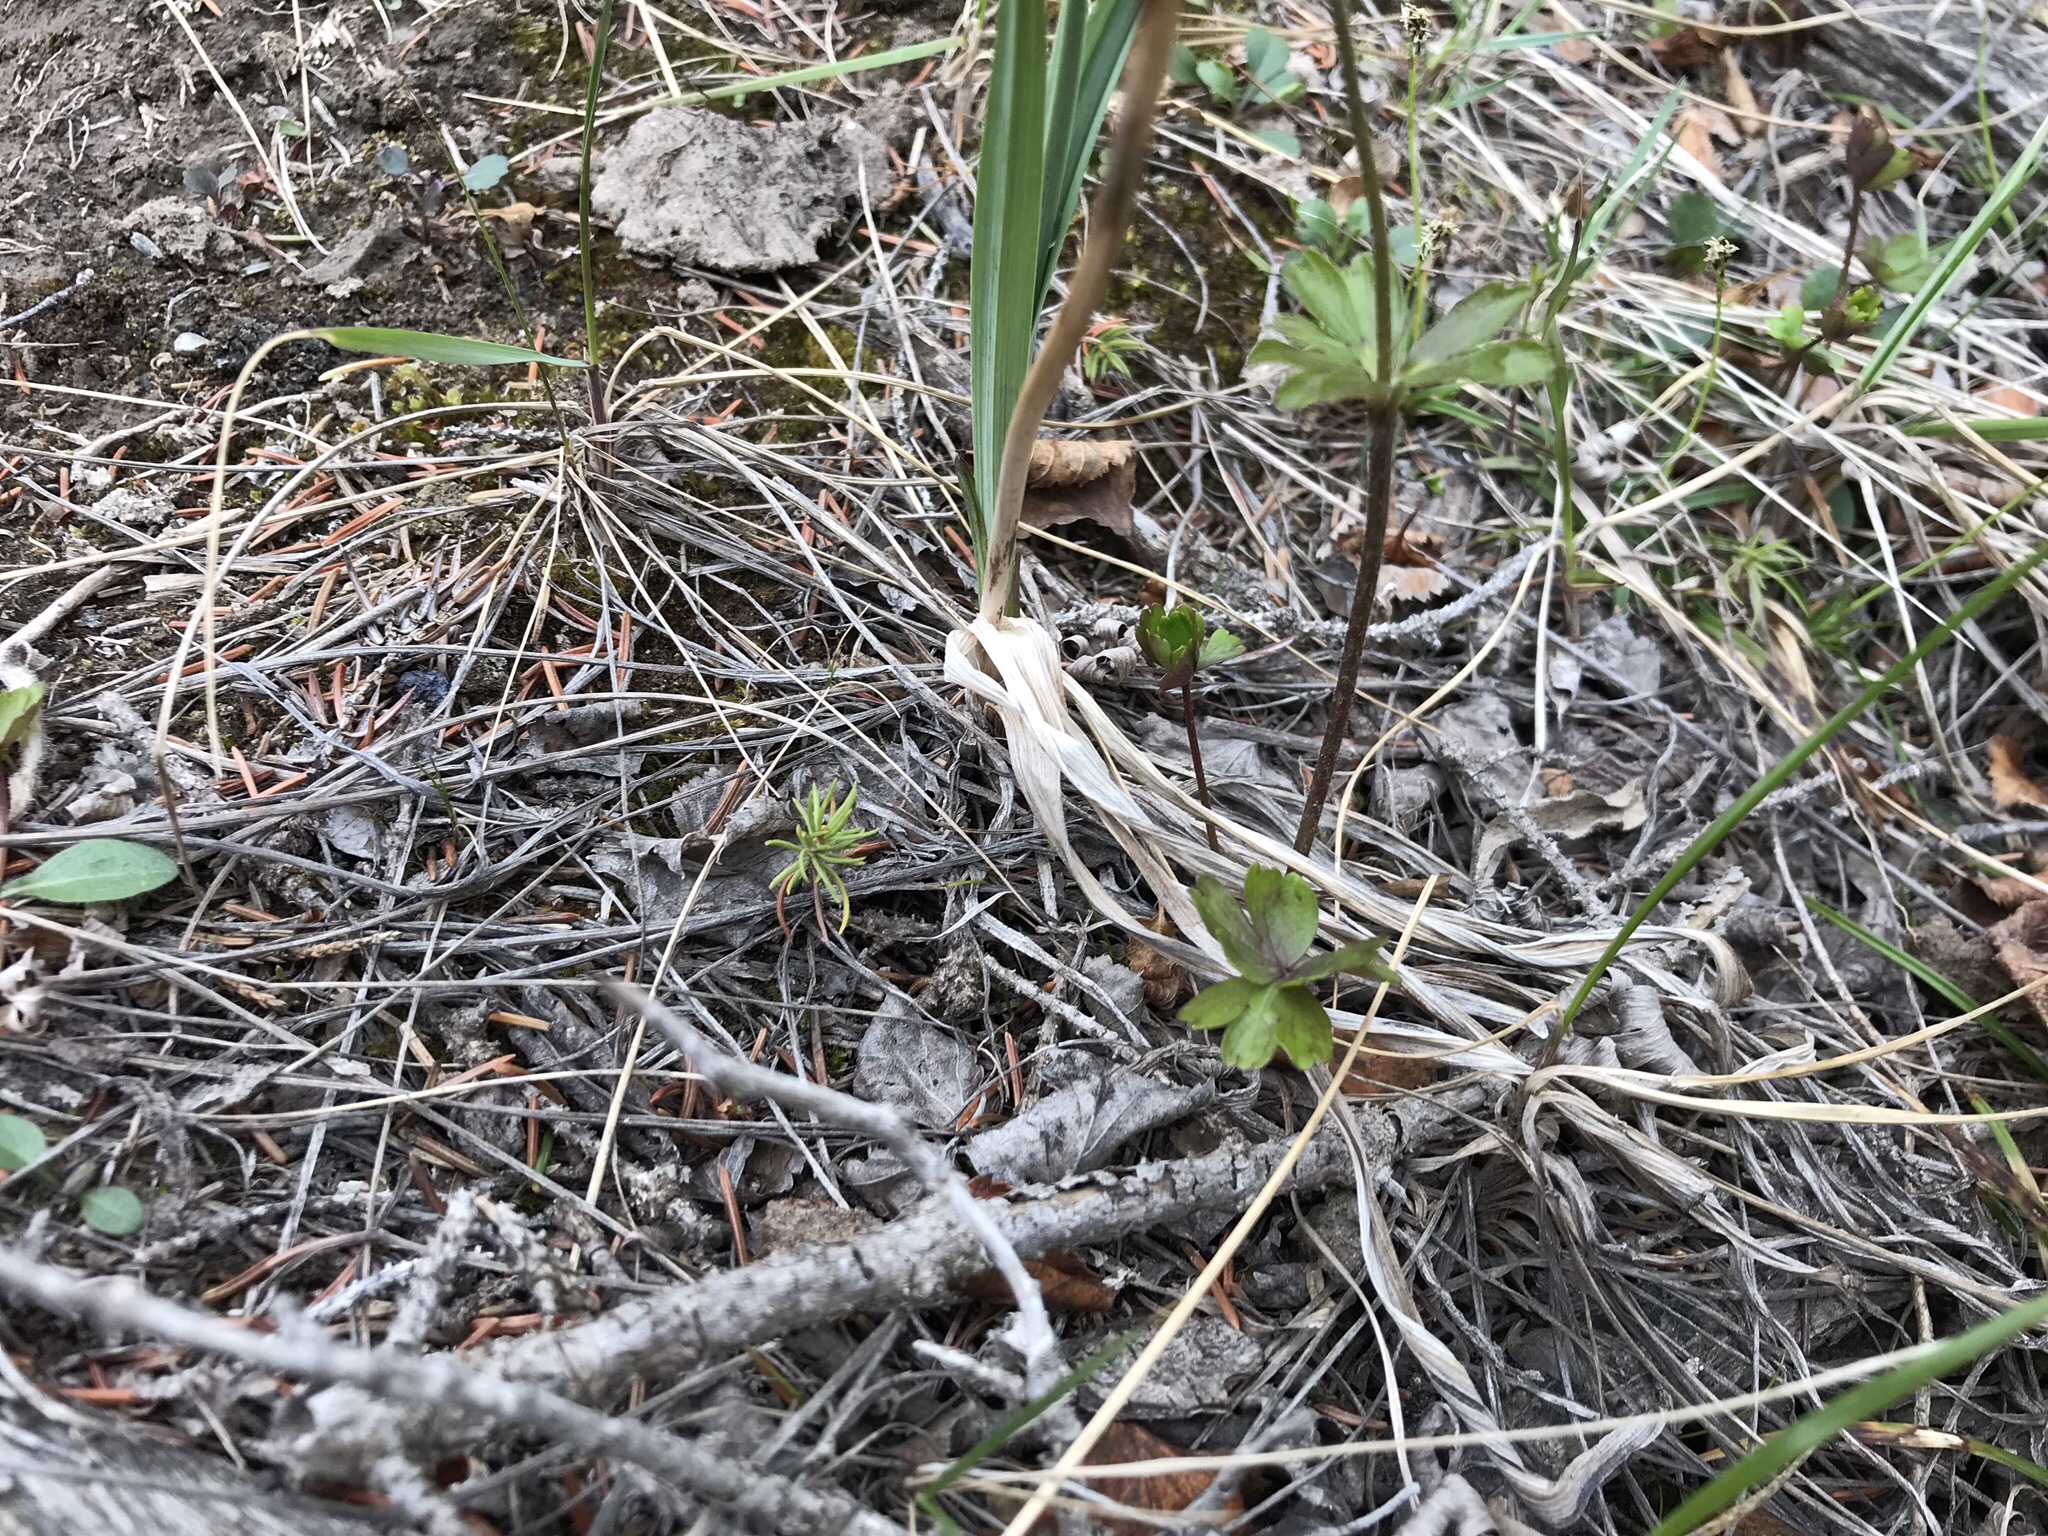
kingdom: Plantae
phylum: Tracheophyta
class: Magnoliopsida
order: Ranunculales
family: Ranunculaceae
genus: Anemone
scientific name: Anemone parviflora
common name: Northern anemone
